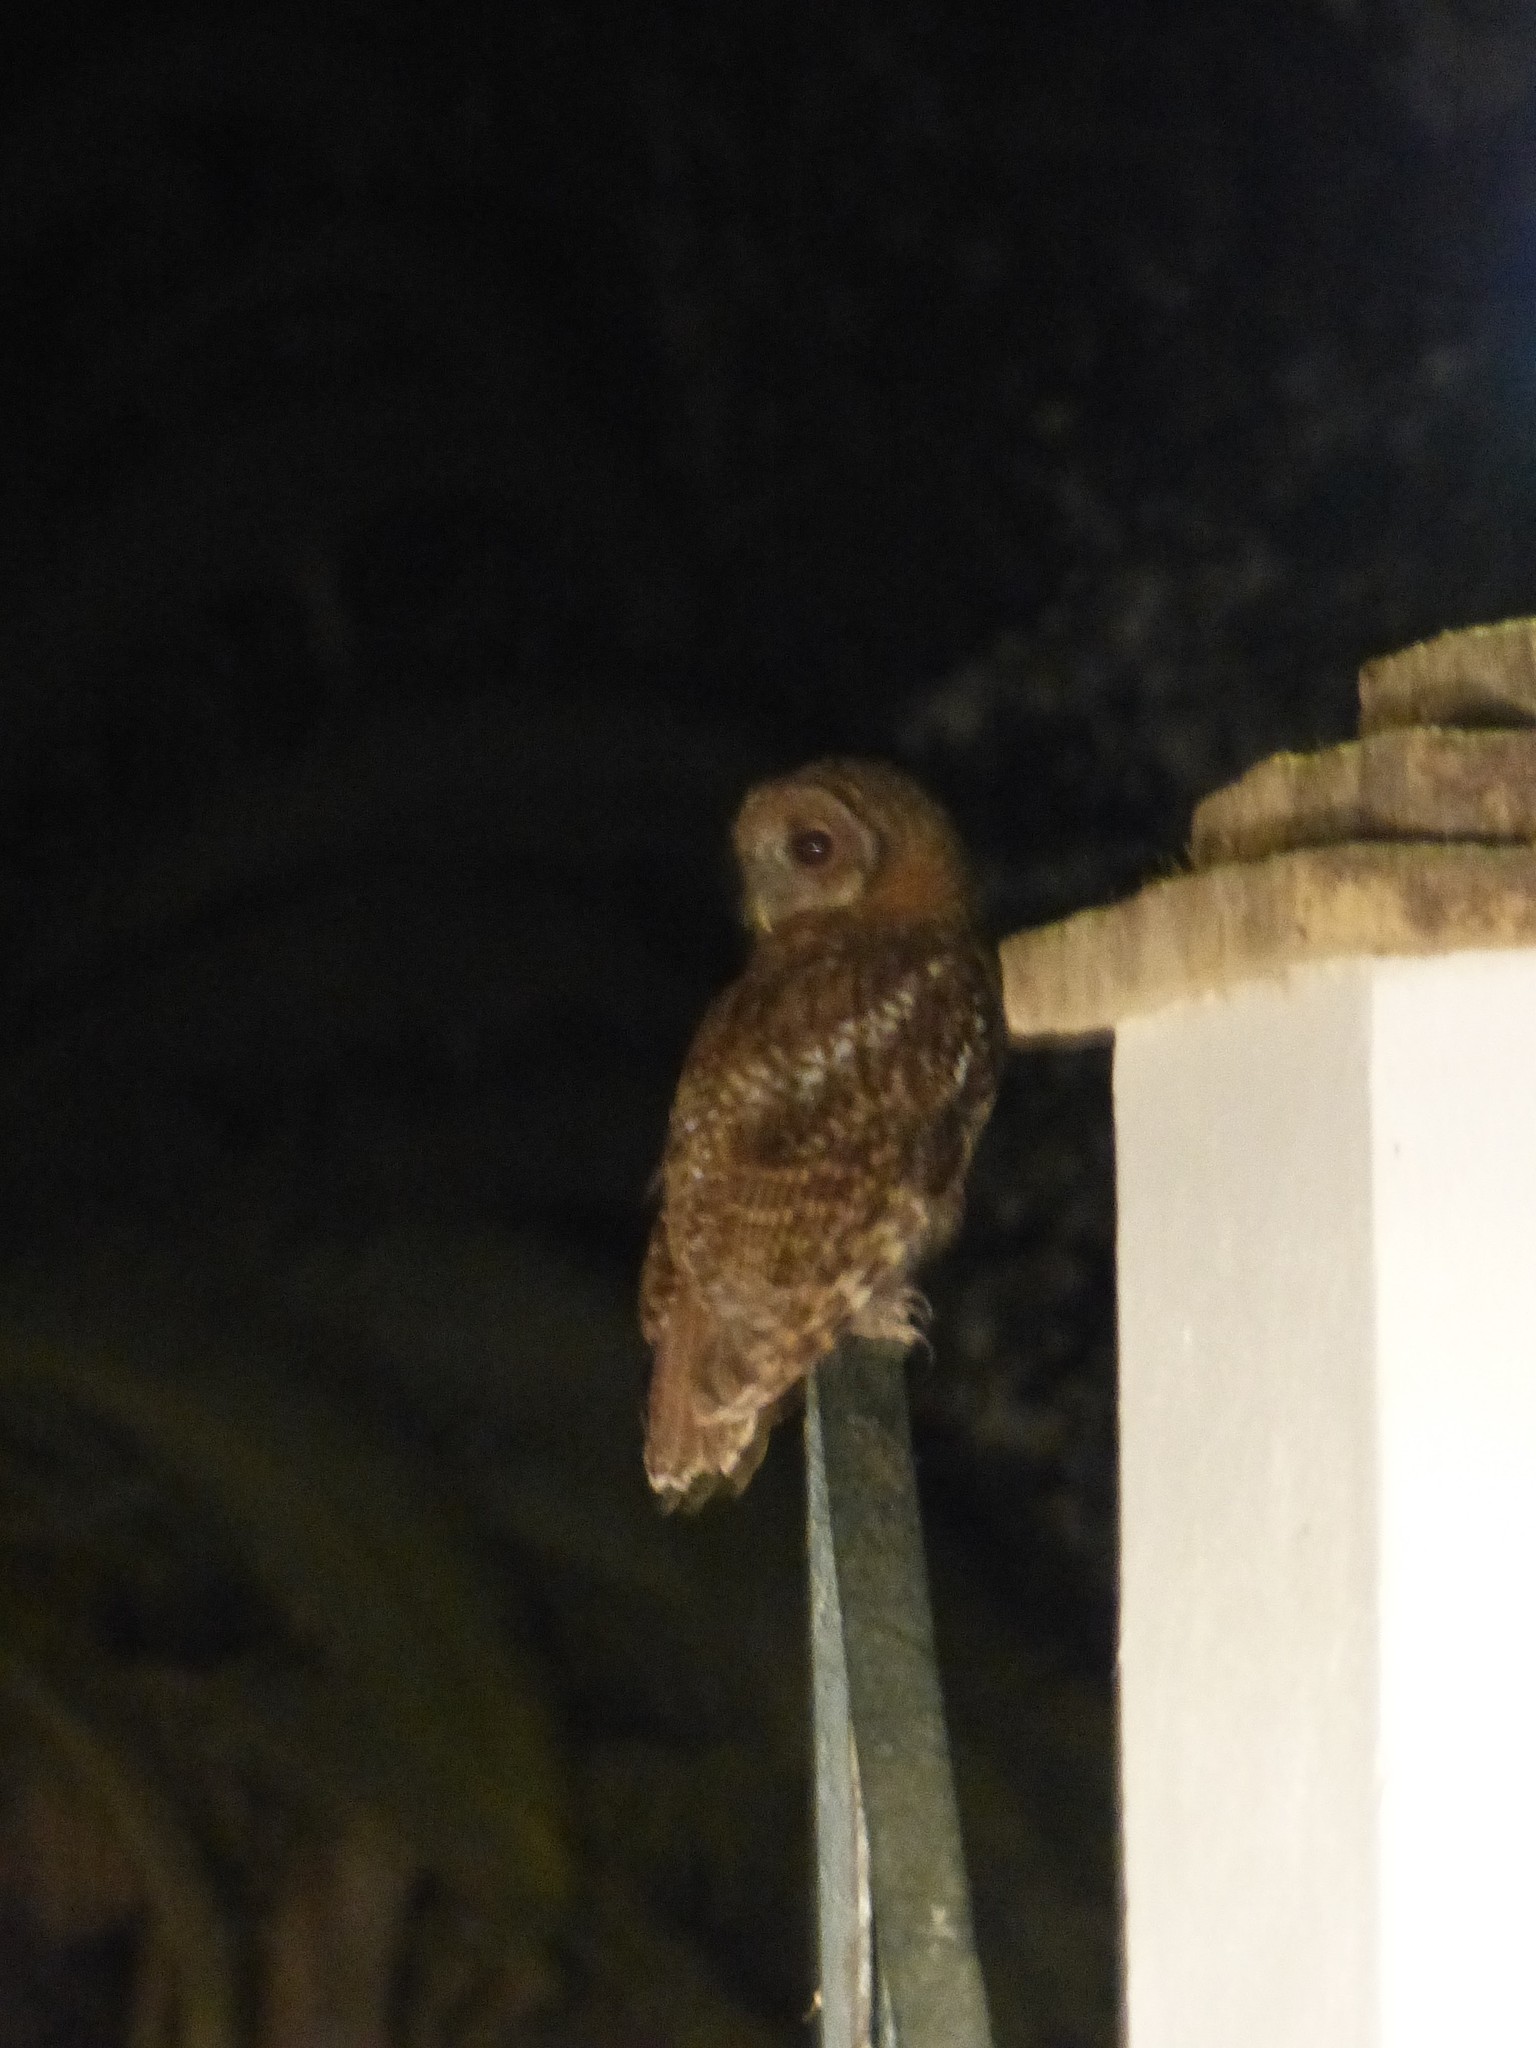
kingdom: Animalia
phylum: Chordata
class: Aves
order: Strigiformes
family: Strigidae
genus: Strix
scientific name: Strix aluco
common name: Tawny owl
